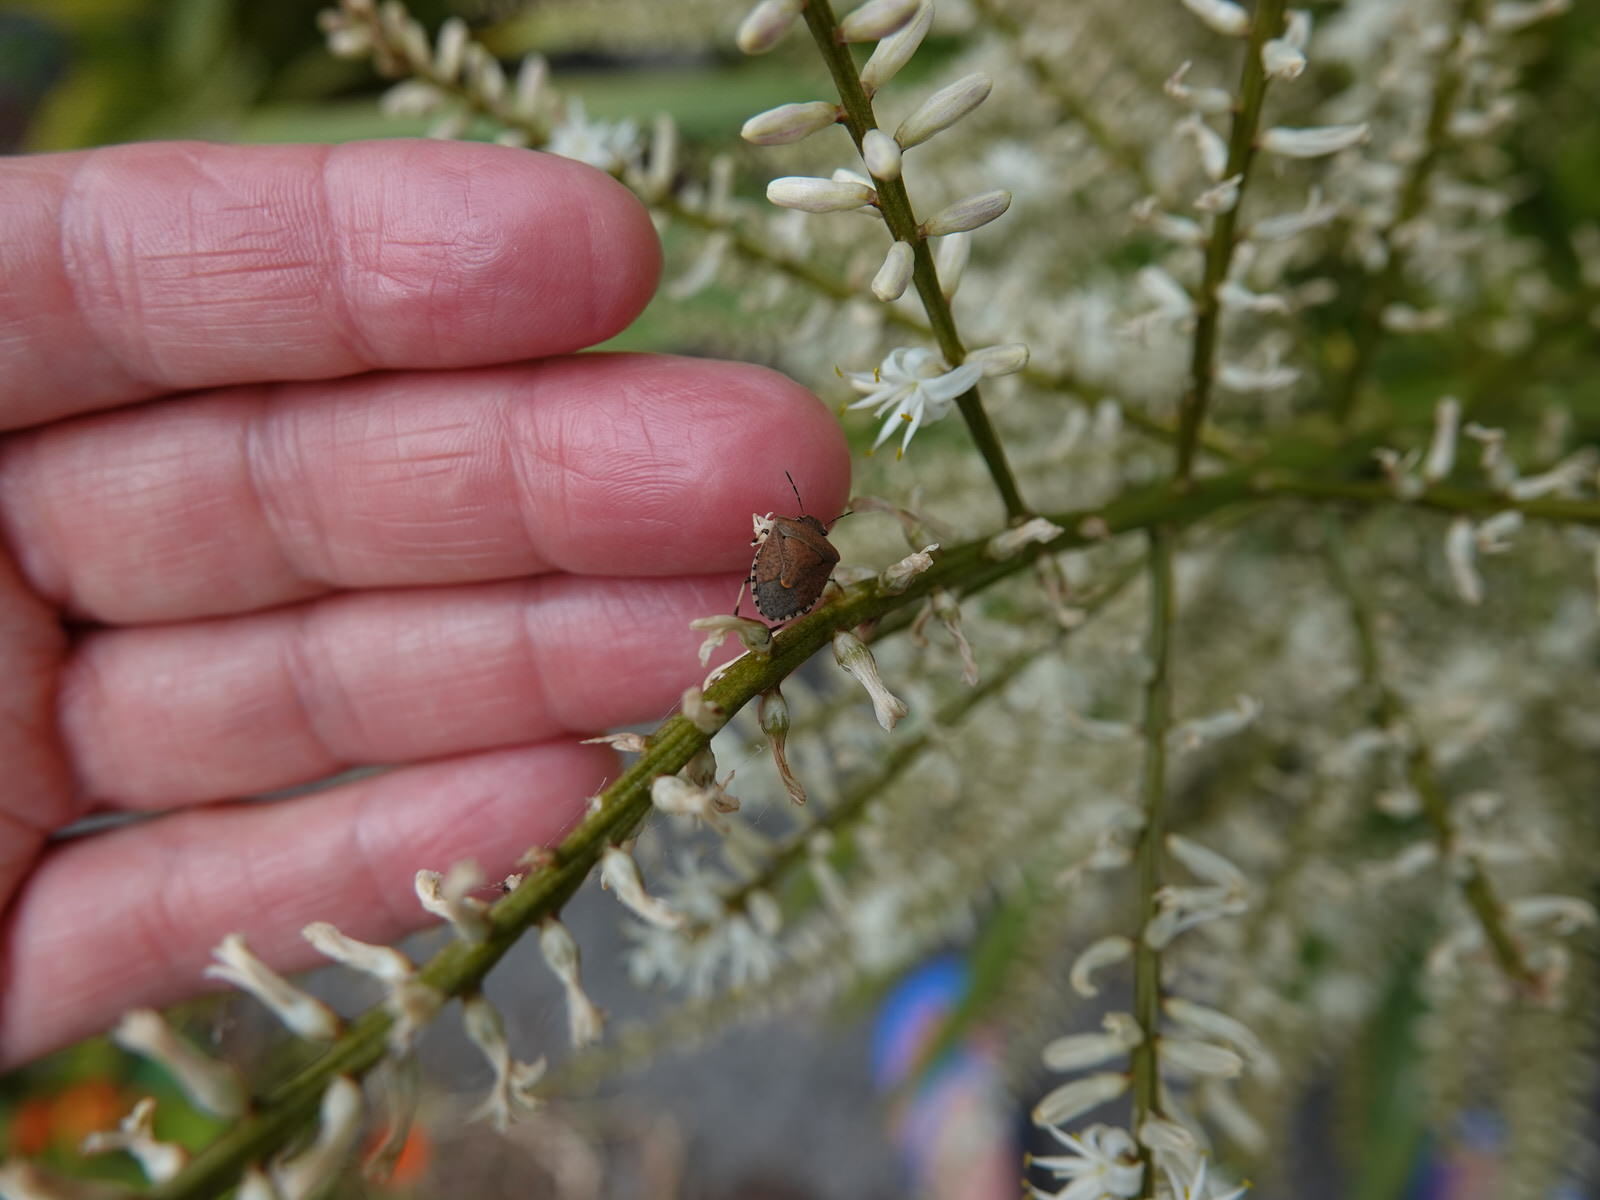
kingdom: Animalia
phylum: Arthropoda
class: Insecta
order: Hemiptera
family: Pentatomidae
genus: Dictyotus
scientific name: Dictyotus caenosus
